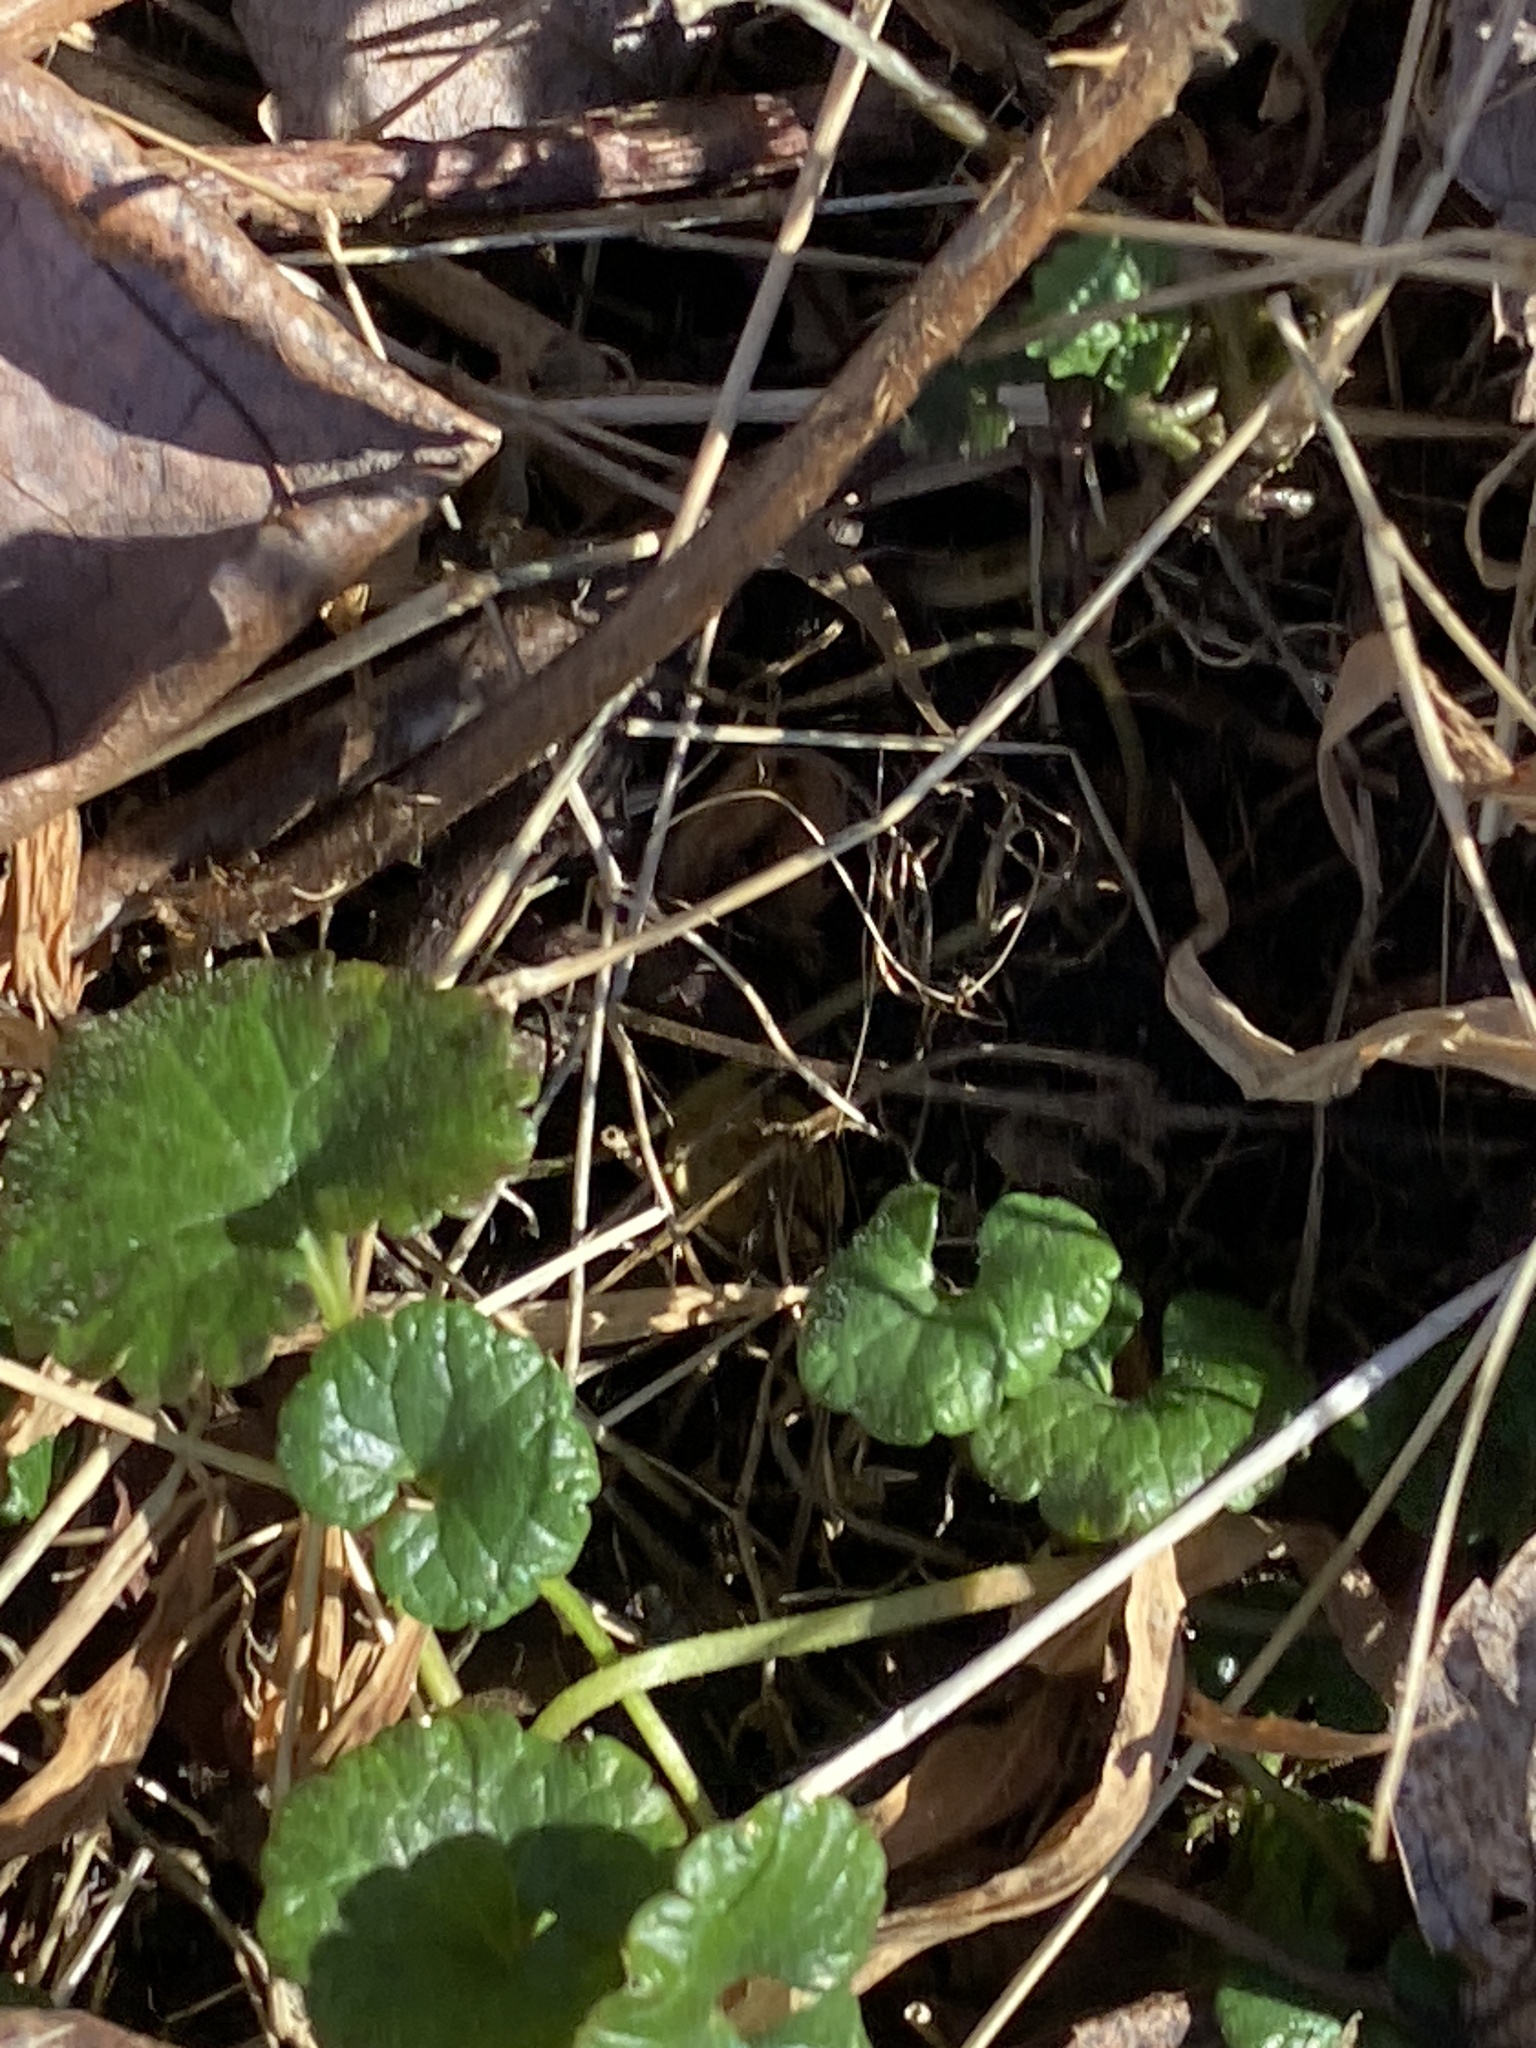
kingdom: Plantae
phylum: Tracheophyta
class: Magnoliopsida
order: Lamiales
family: Lamiaceae
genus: Glechoma
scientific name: Glechoma hederacea
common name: Ground ivy
